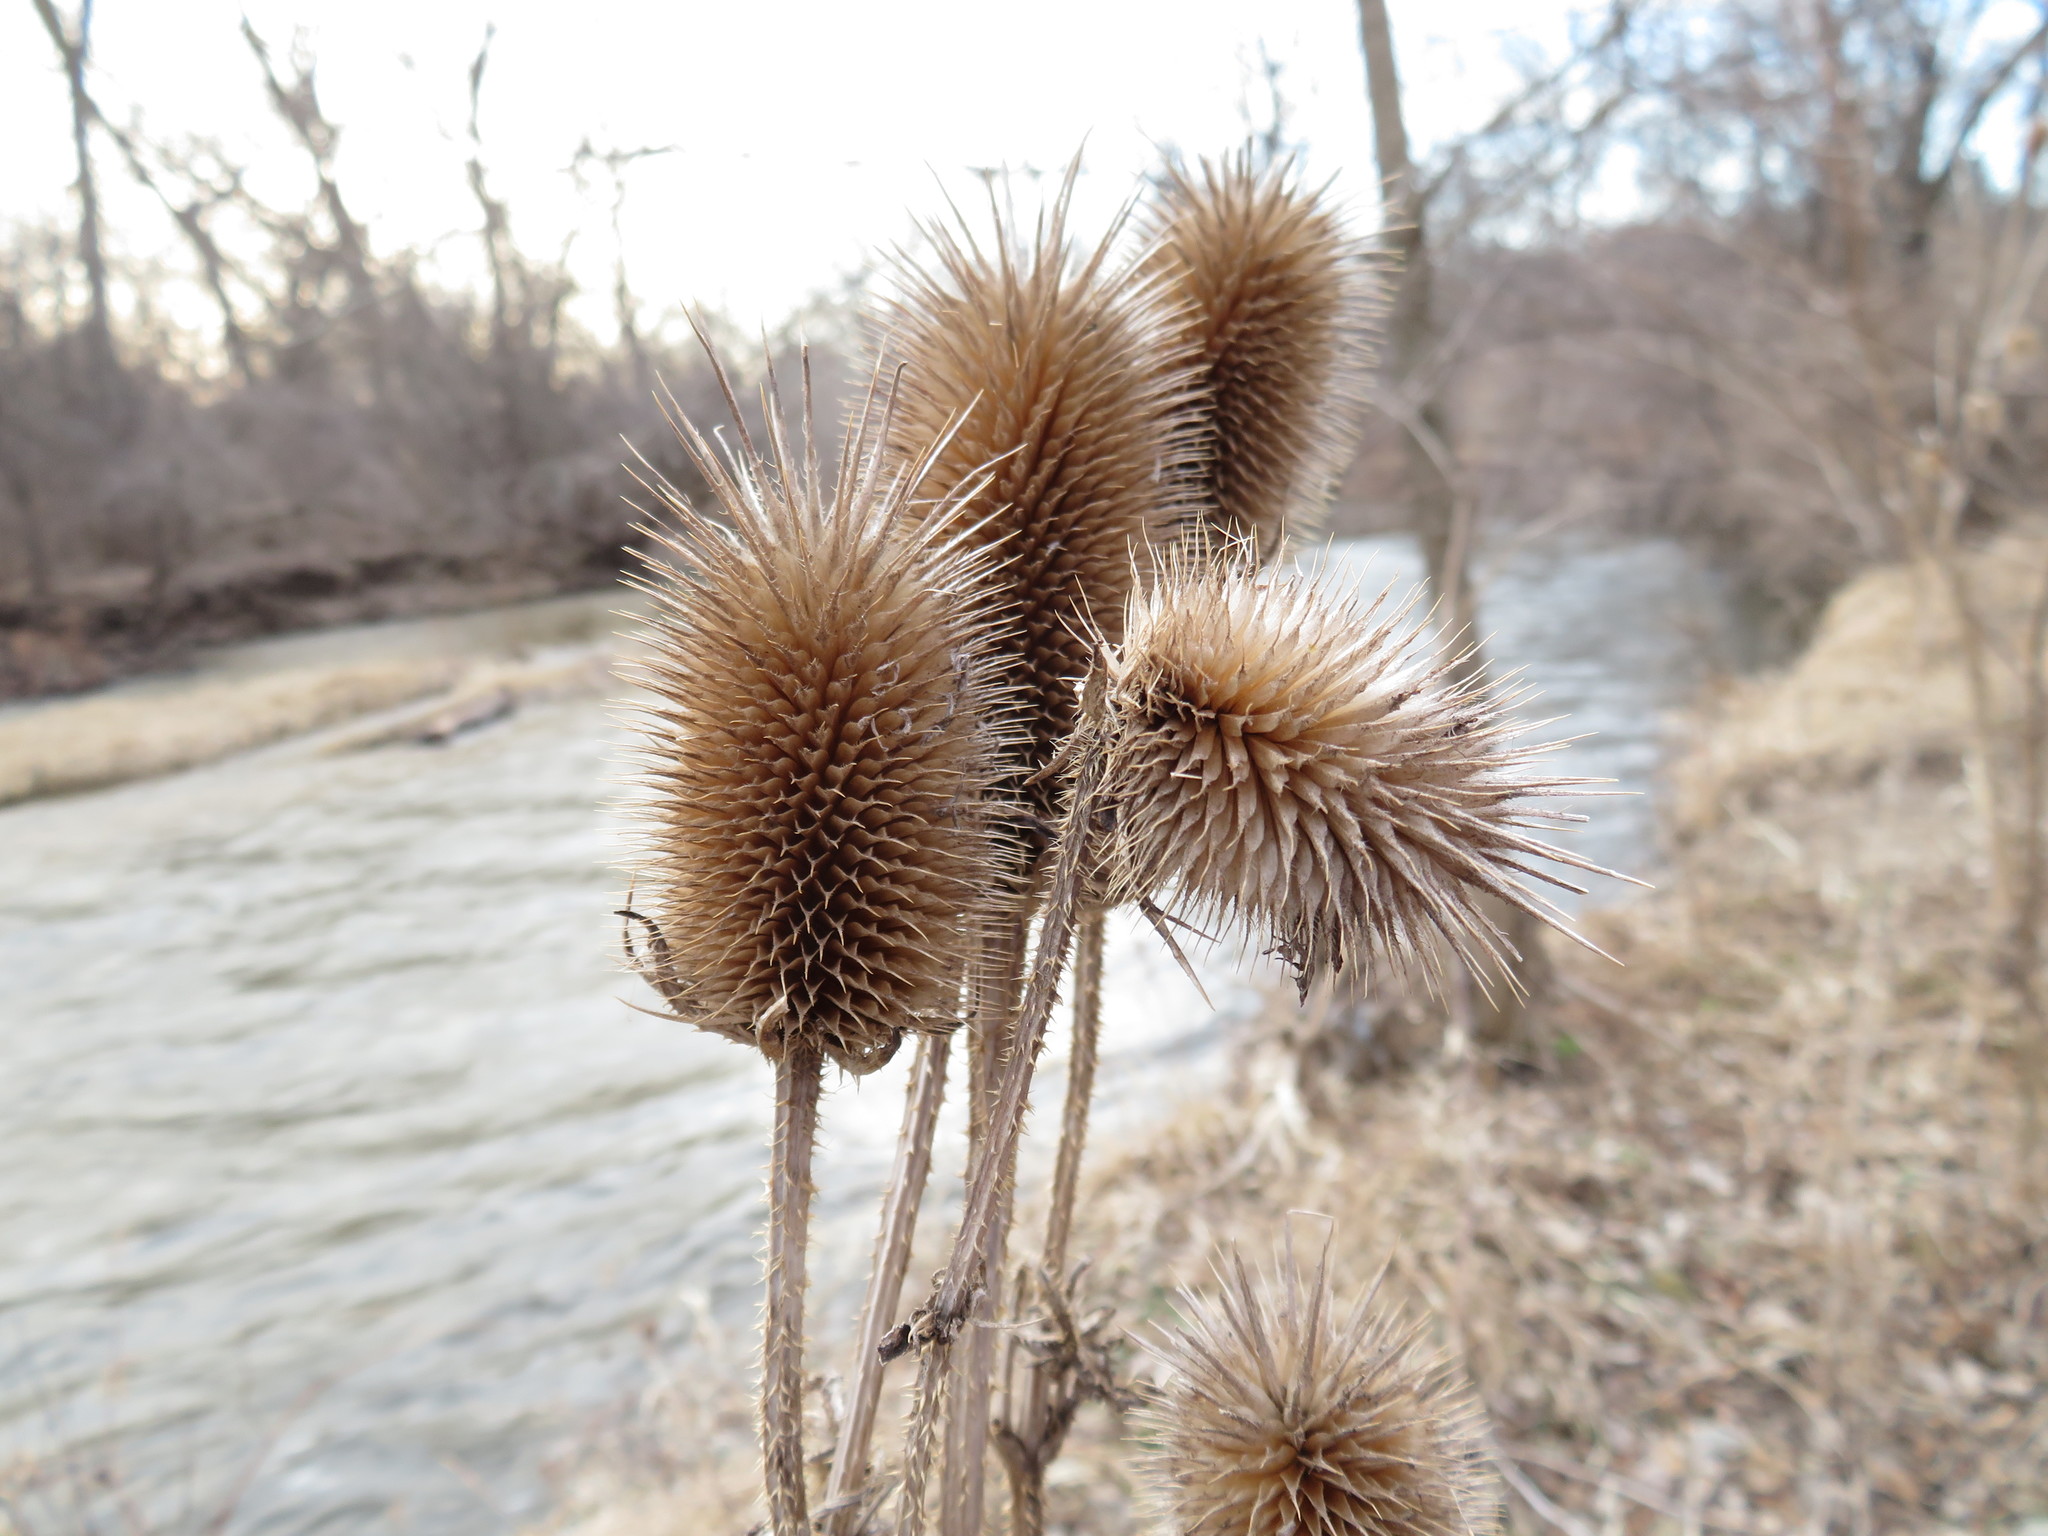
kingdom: Plantae
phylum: Tracheophyta
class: Magnoliopsida
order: Dipsacales
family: Caprifoliaceae
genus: Dipsacus
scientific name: Dipsacus laciniatus
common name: Cut-leaved teasel
